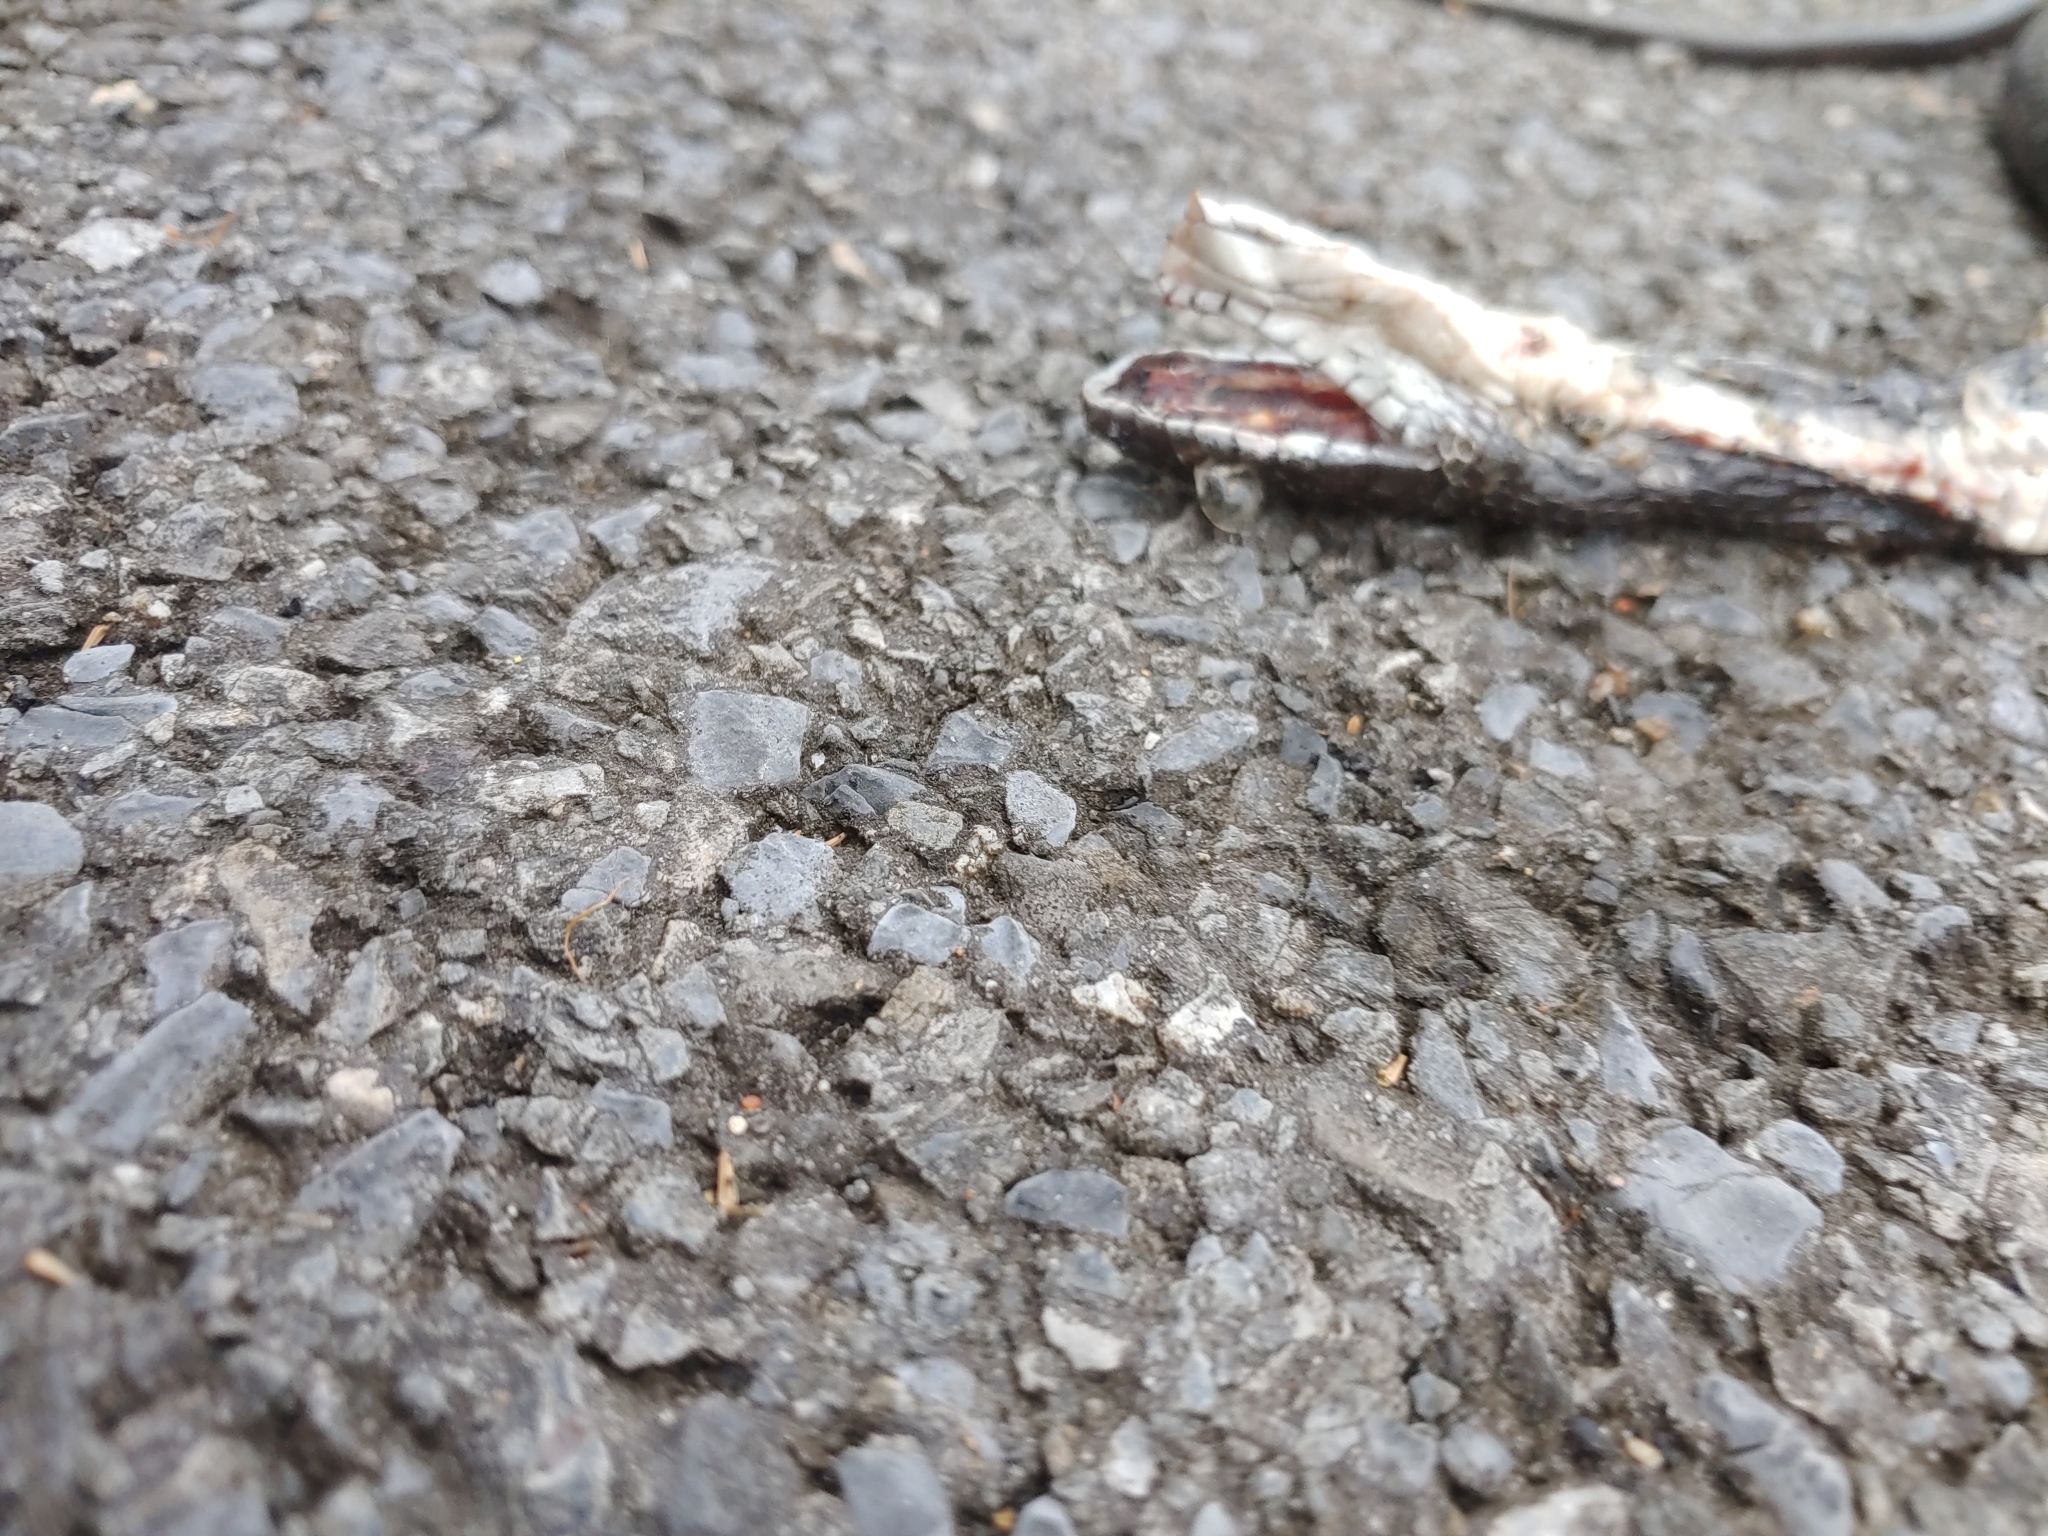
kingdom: Animalia
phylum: Chordata
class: Squamata
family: Colubridae
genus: Pantherophis
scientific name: Pantherophis alleghaniensis
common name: Eastern rat snake
